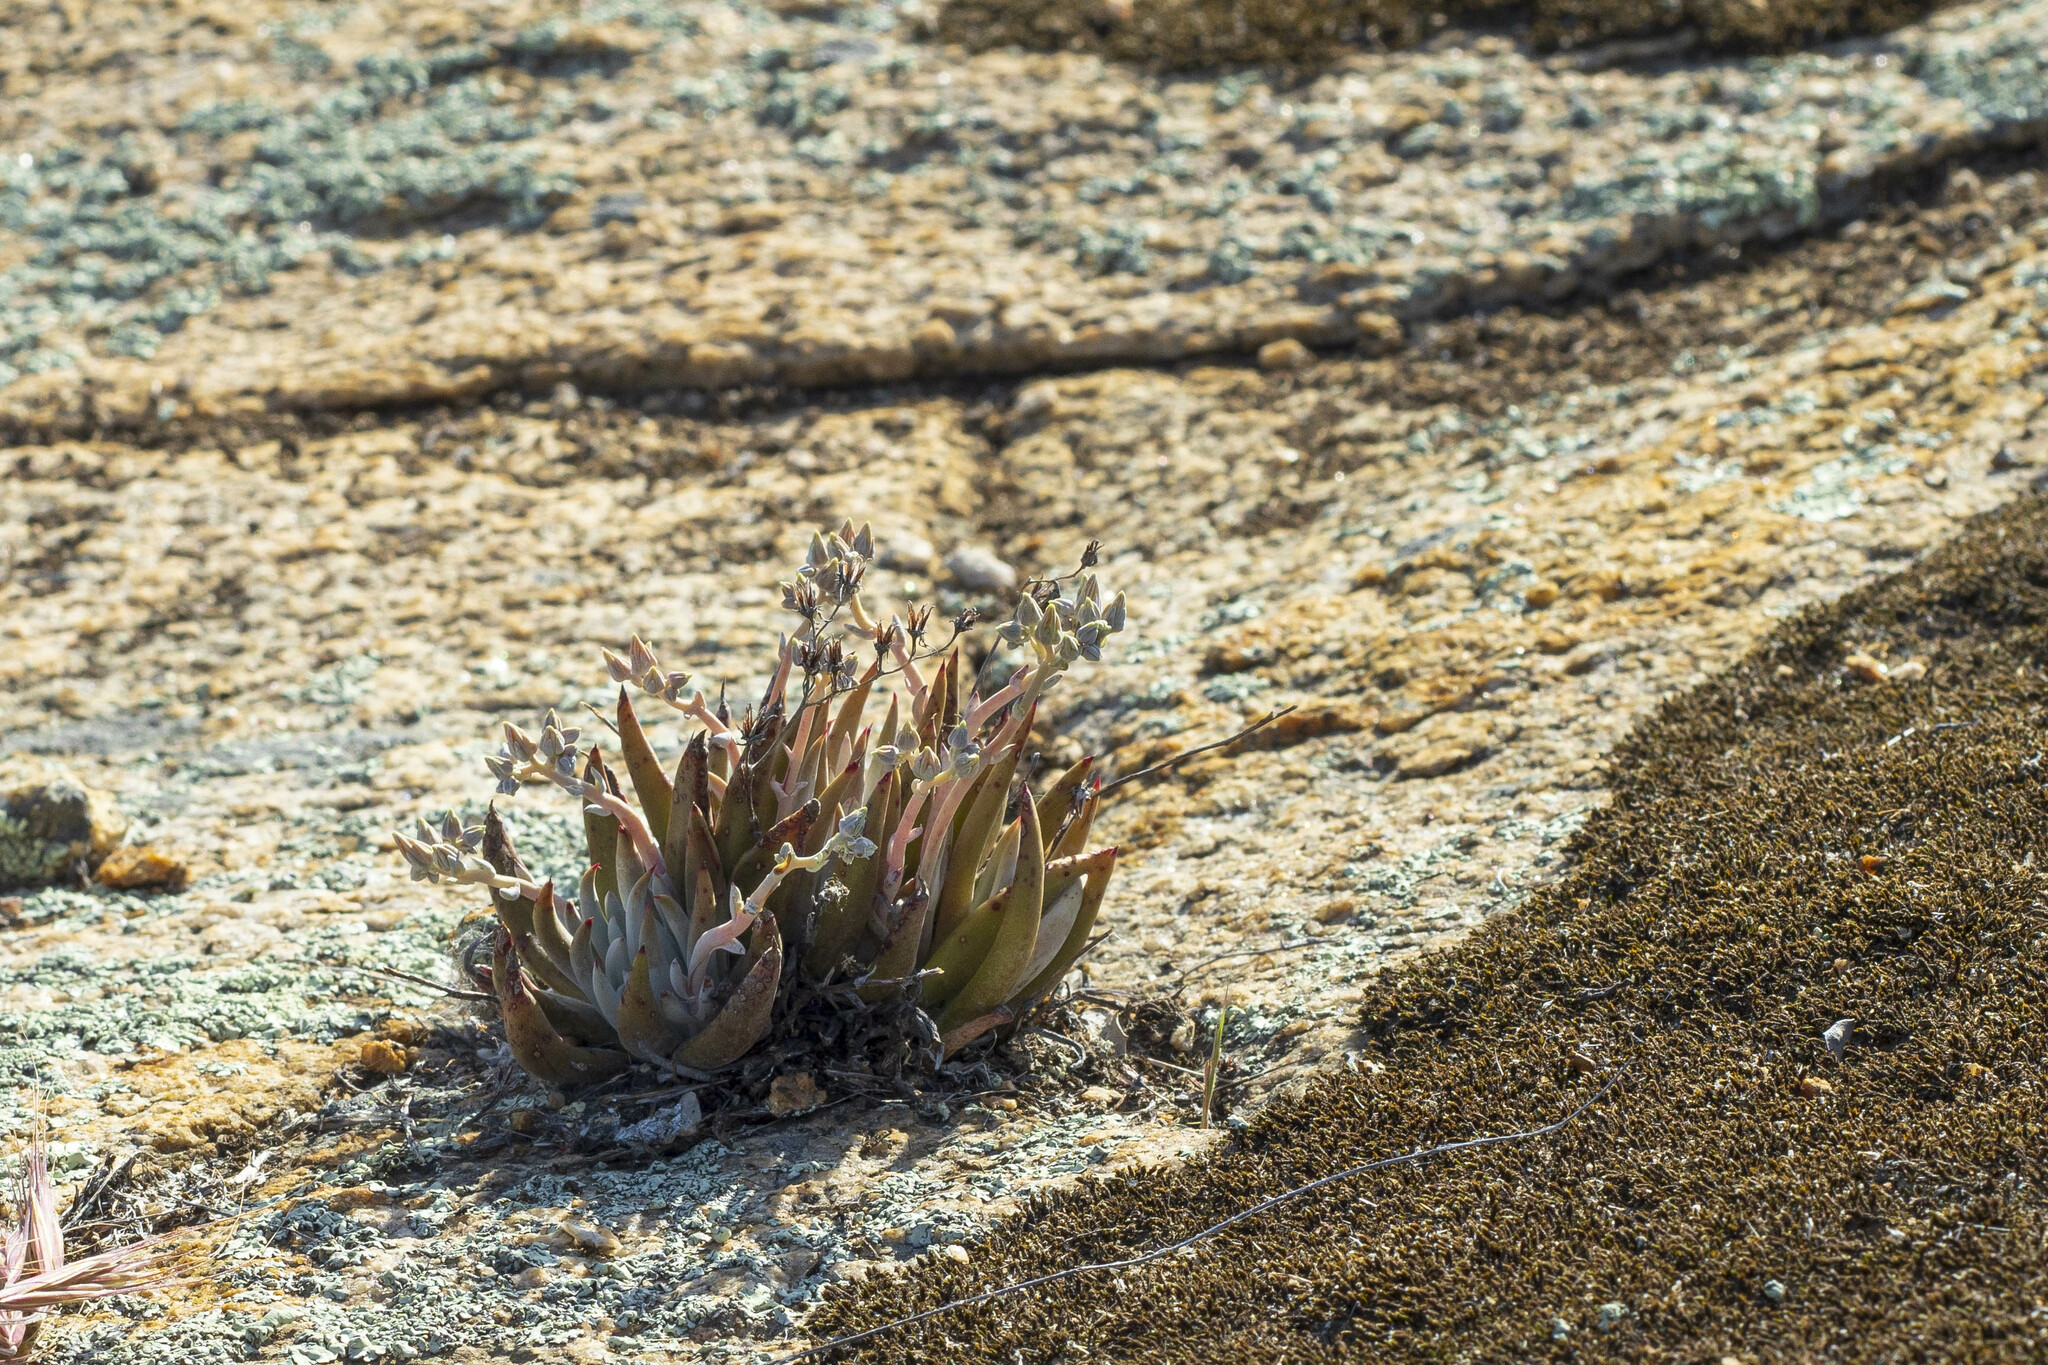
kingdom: Plantae
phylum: Tracheophyta
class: Magnoliopsida
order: Saxifragales
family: Crassulaceae
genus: Dudleya
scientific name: Dudleya abramsii
